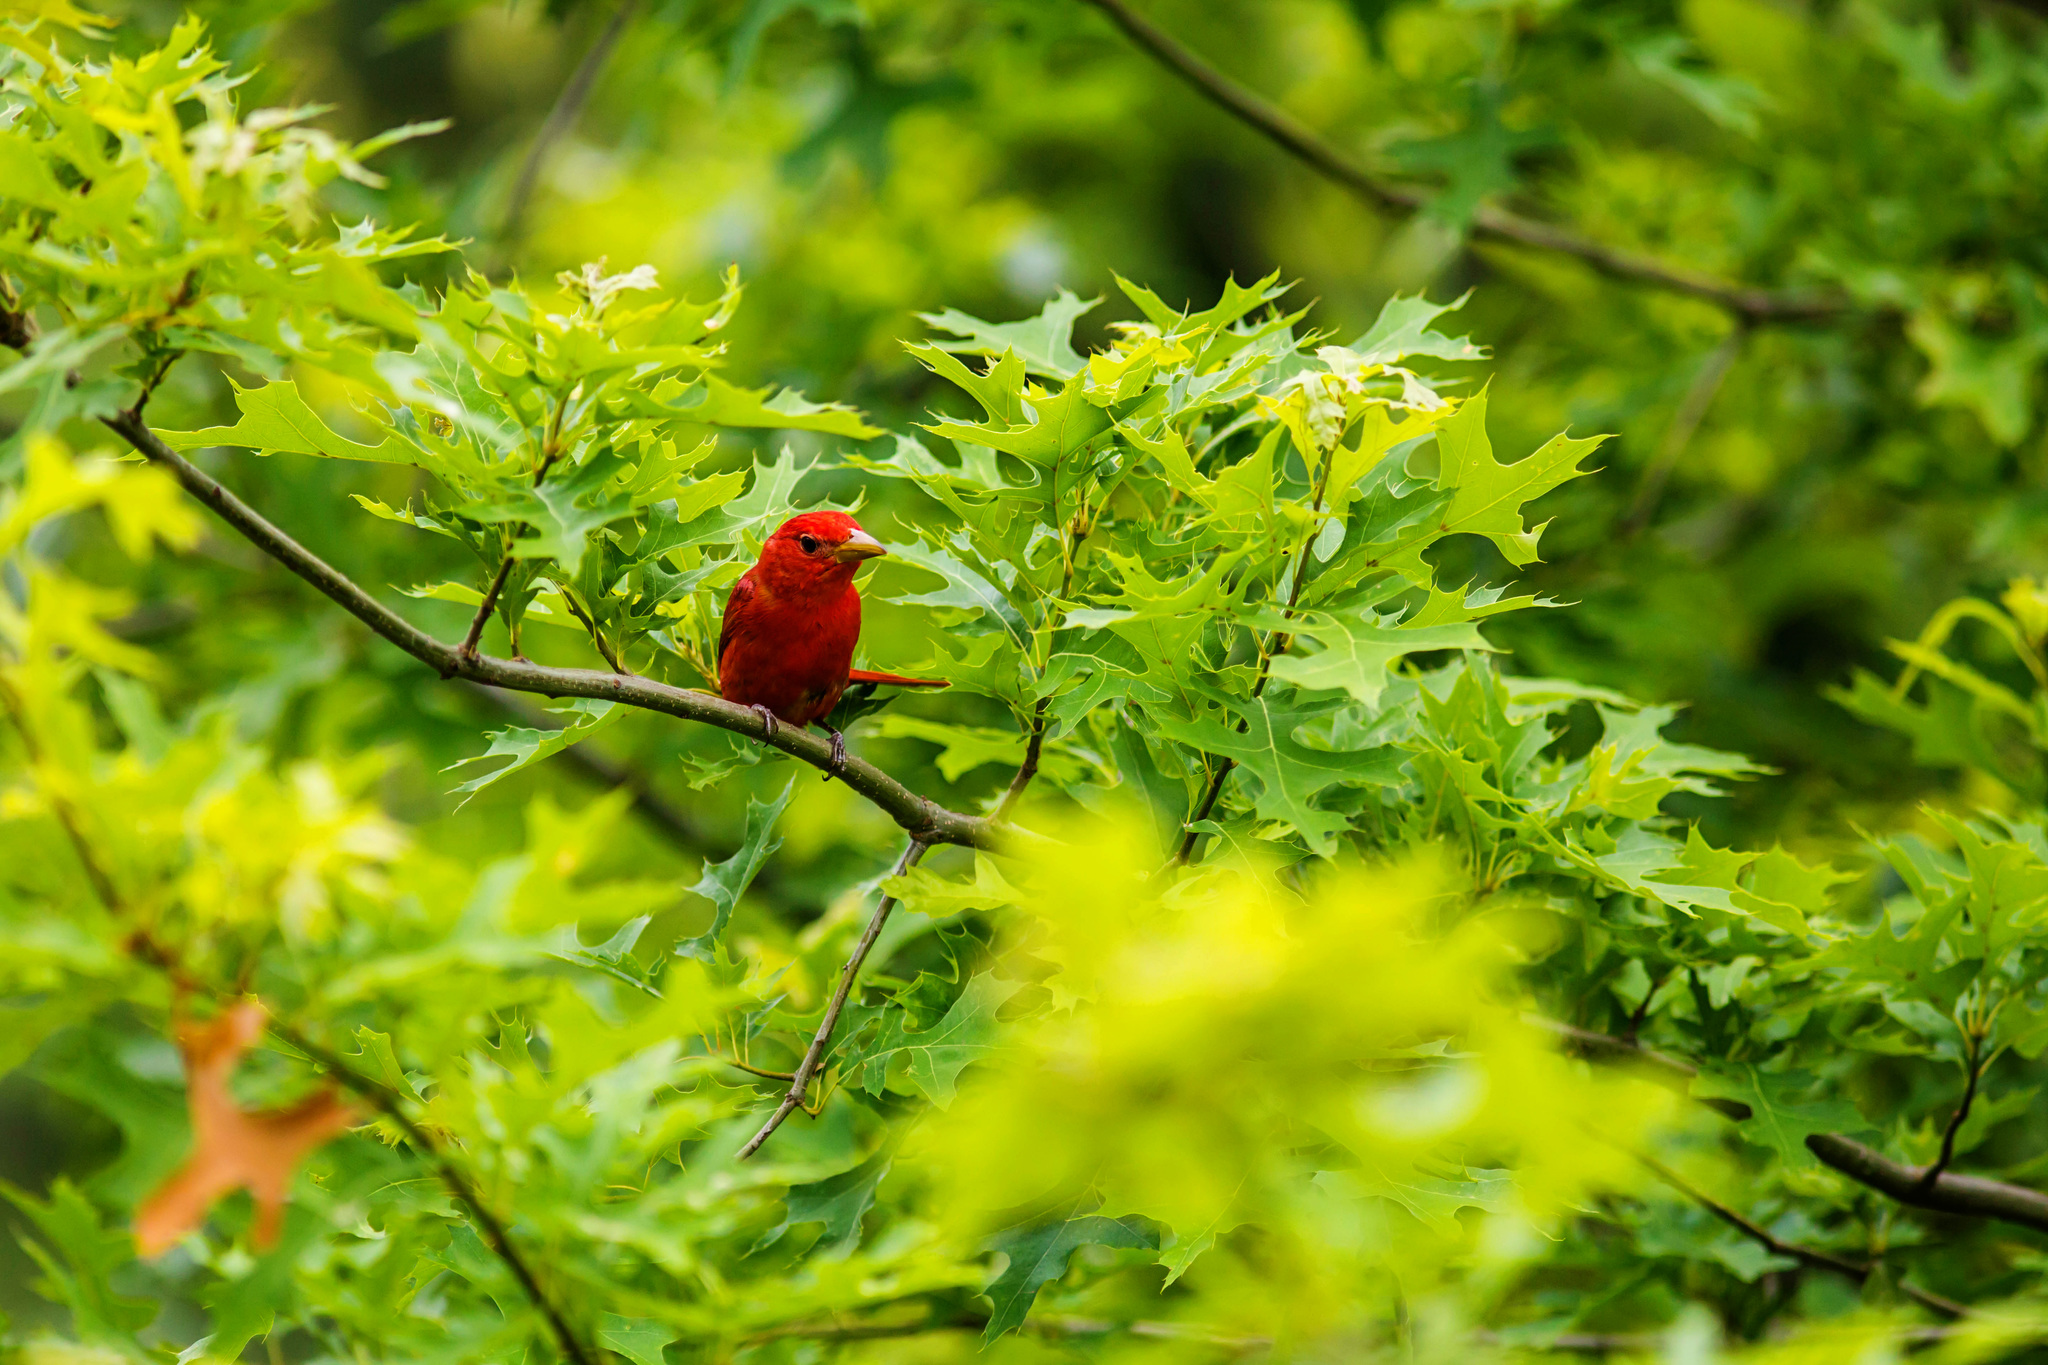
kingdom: Animalia
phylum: Chordata
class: Aves
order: Passeriformes
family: Cardinalidae
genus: Piranga
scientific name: Piranga rubra
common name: Summer tanager
